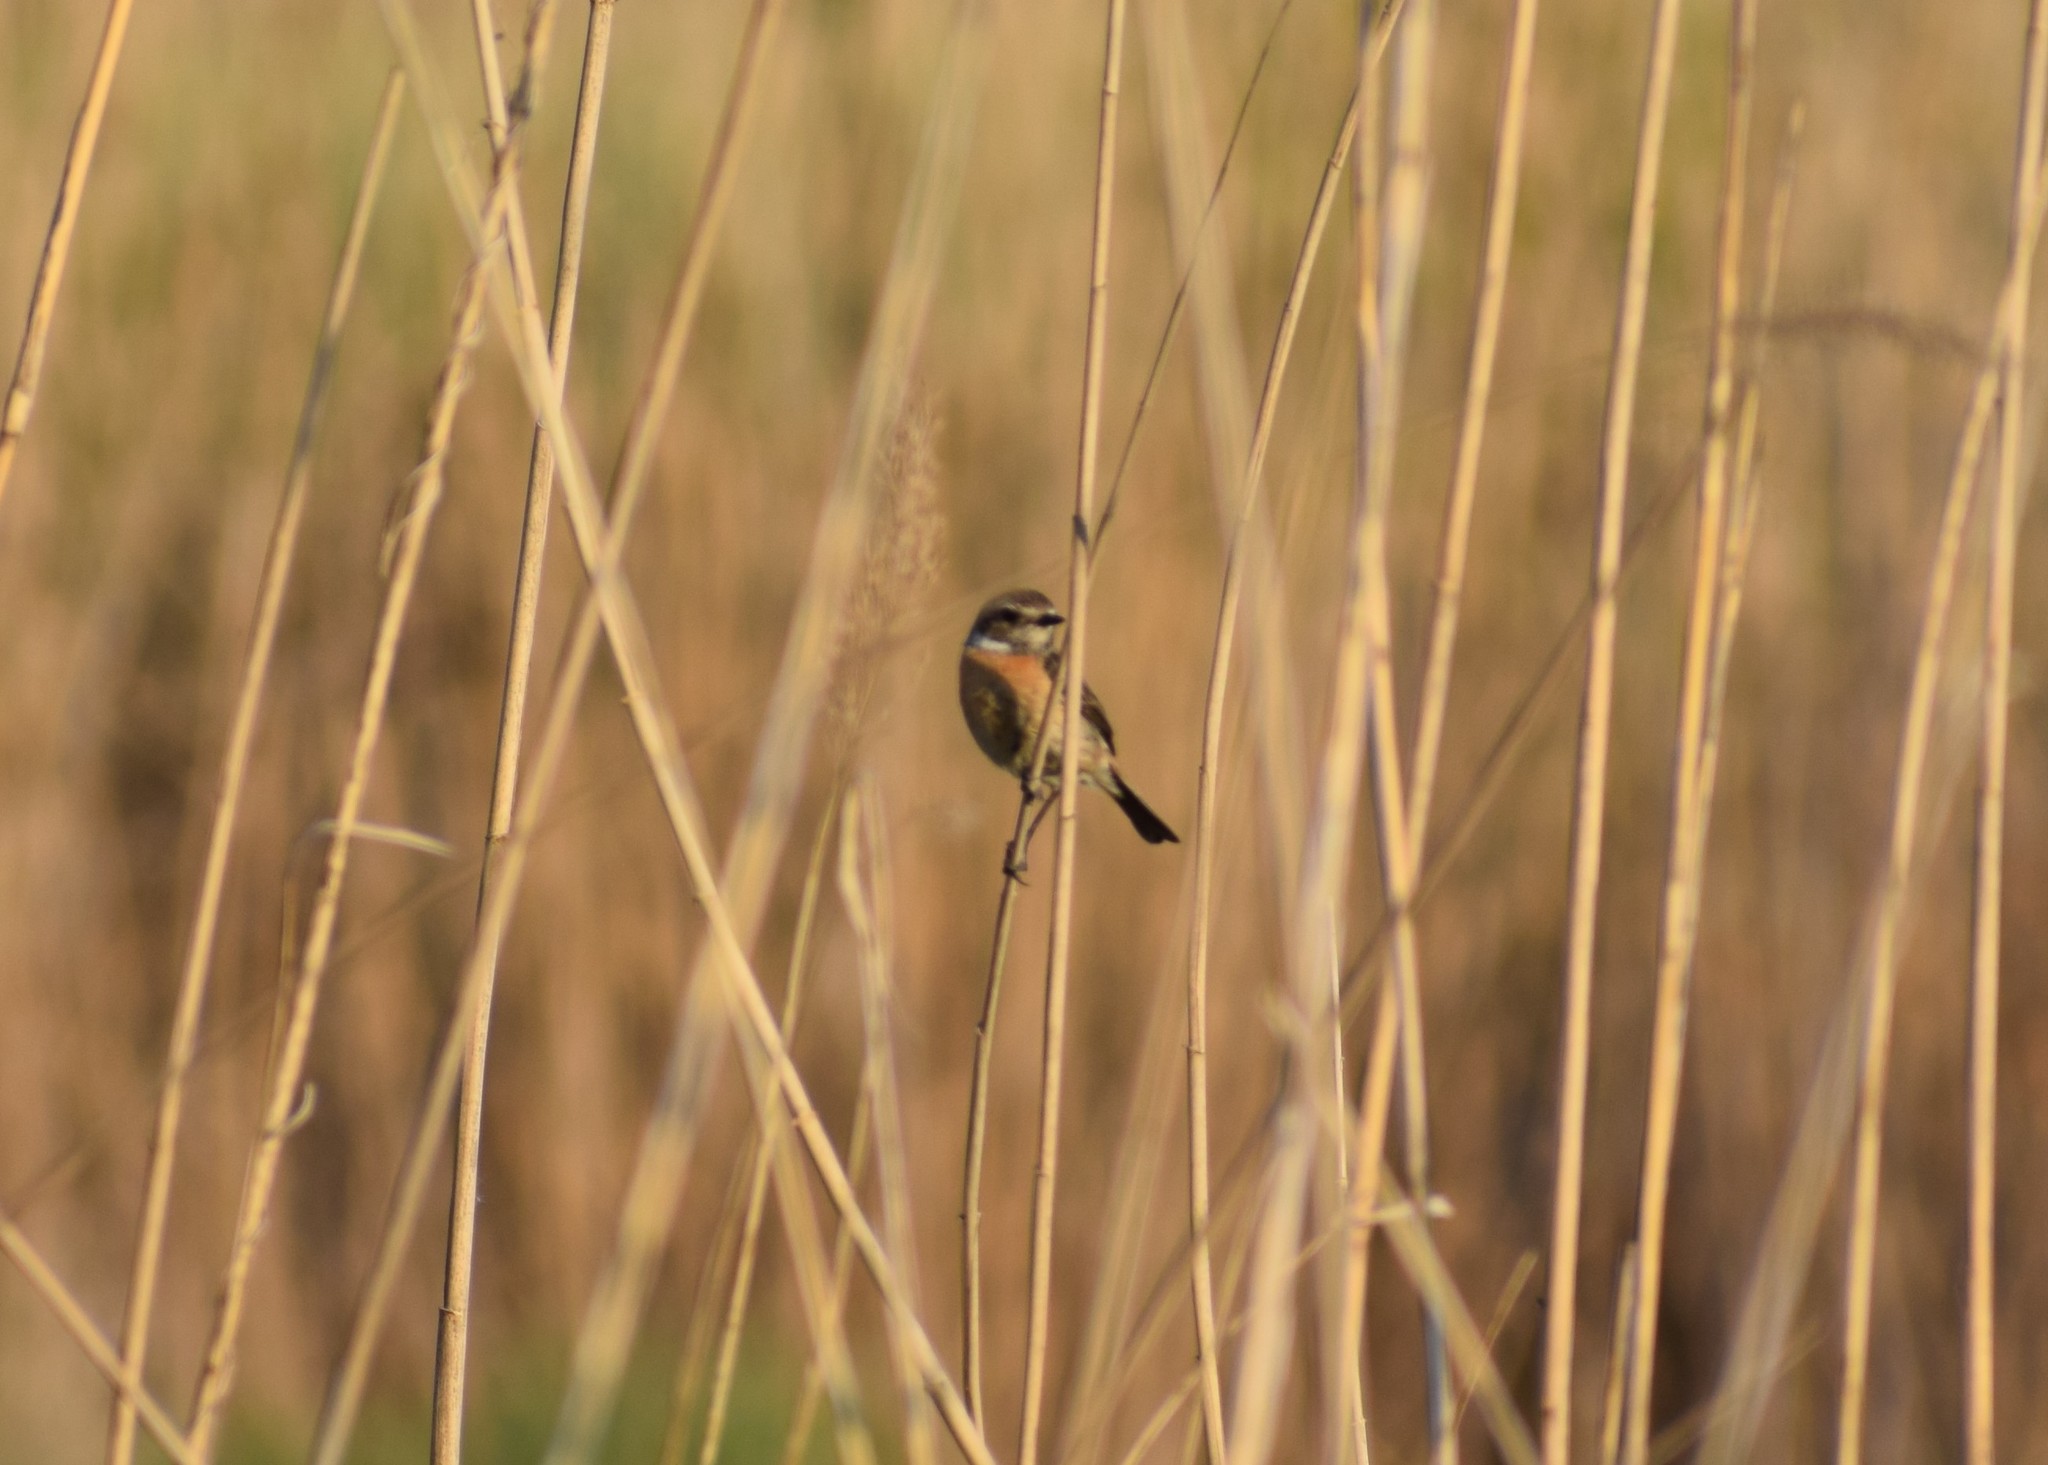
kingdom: Animalia
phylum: Chordata
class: Aves
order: Passeriformes
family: Muscicapidae
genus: Saxicola
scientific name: Saxicola rubicola
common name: European stonechat
